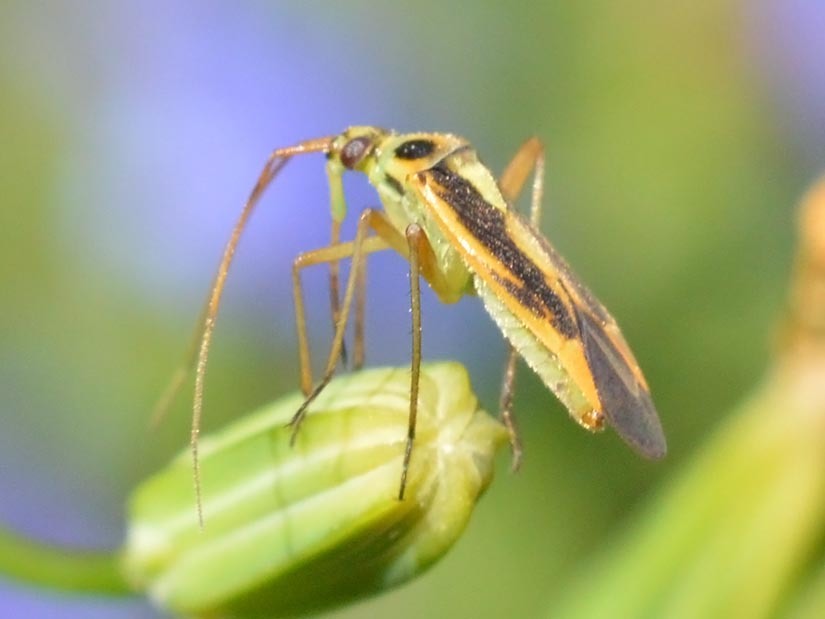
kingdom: Animalia
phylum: Arthropoda
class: Insecta
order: Hemiptera
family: Miridae
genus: Stenotus
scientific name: Stenotus binotatus
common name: Plant bug
